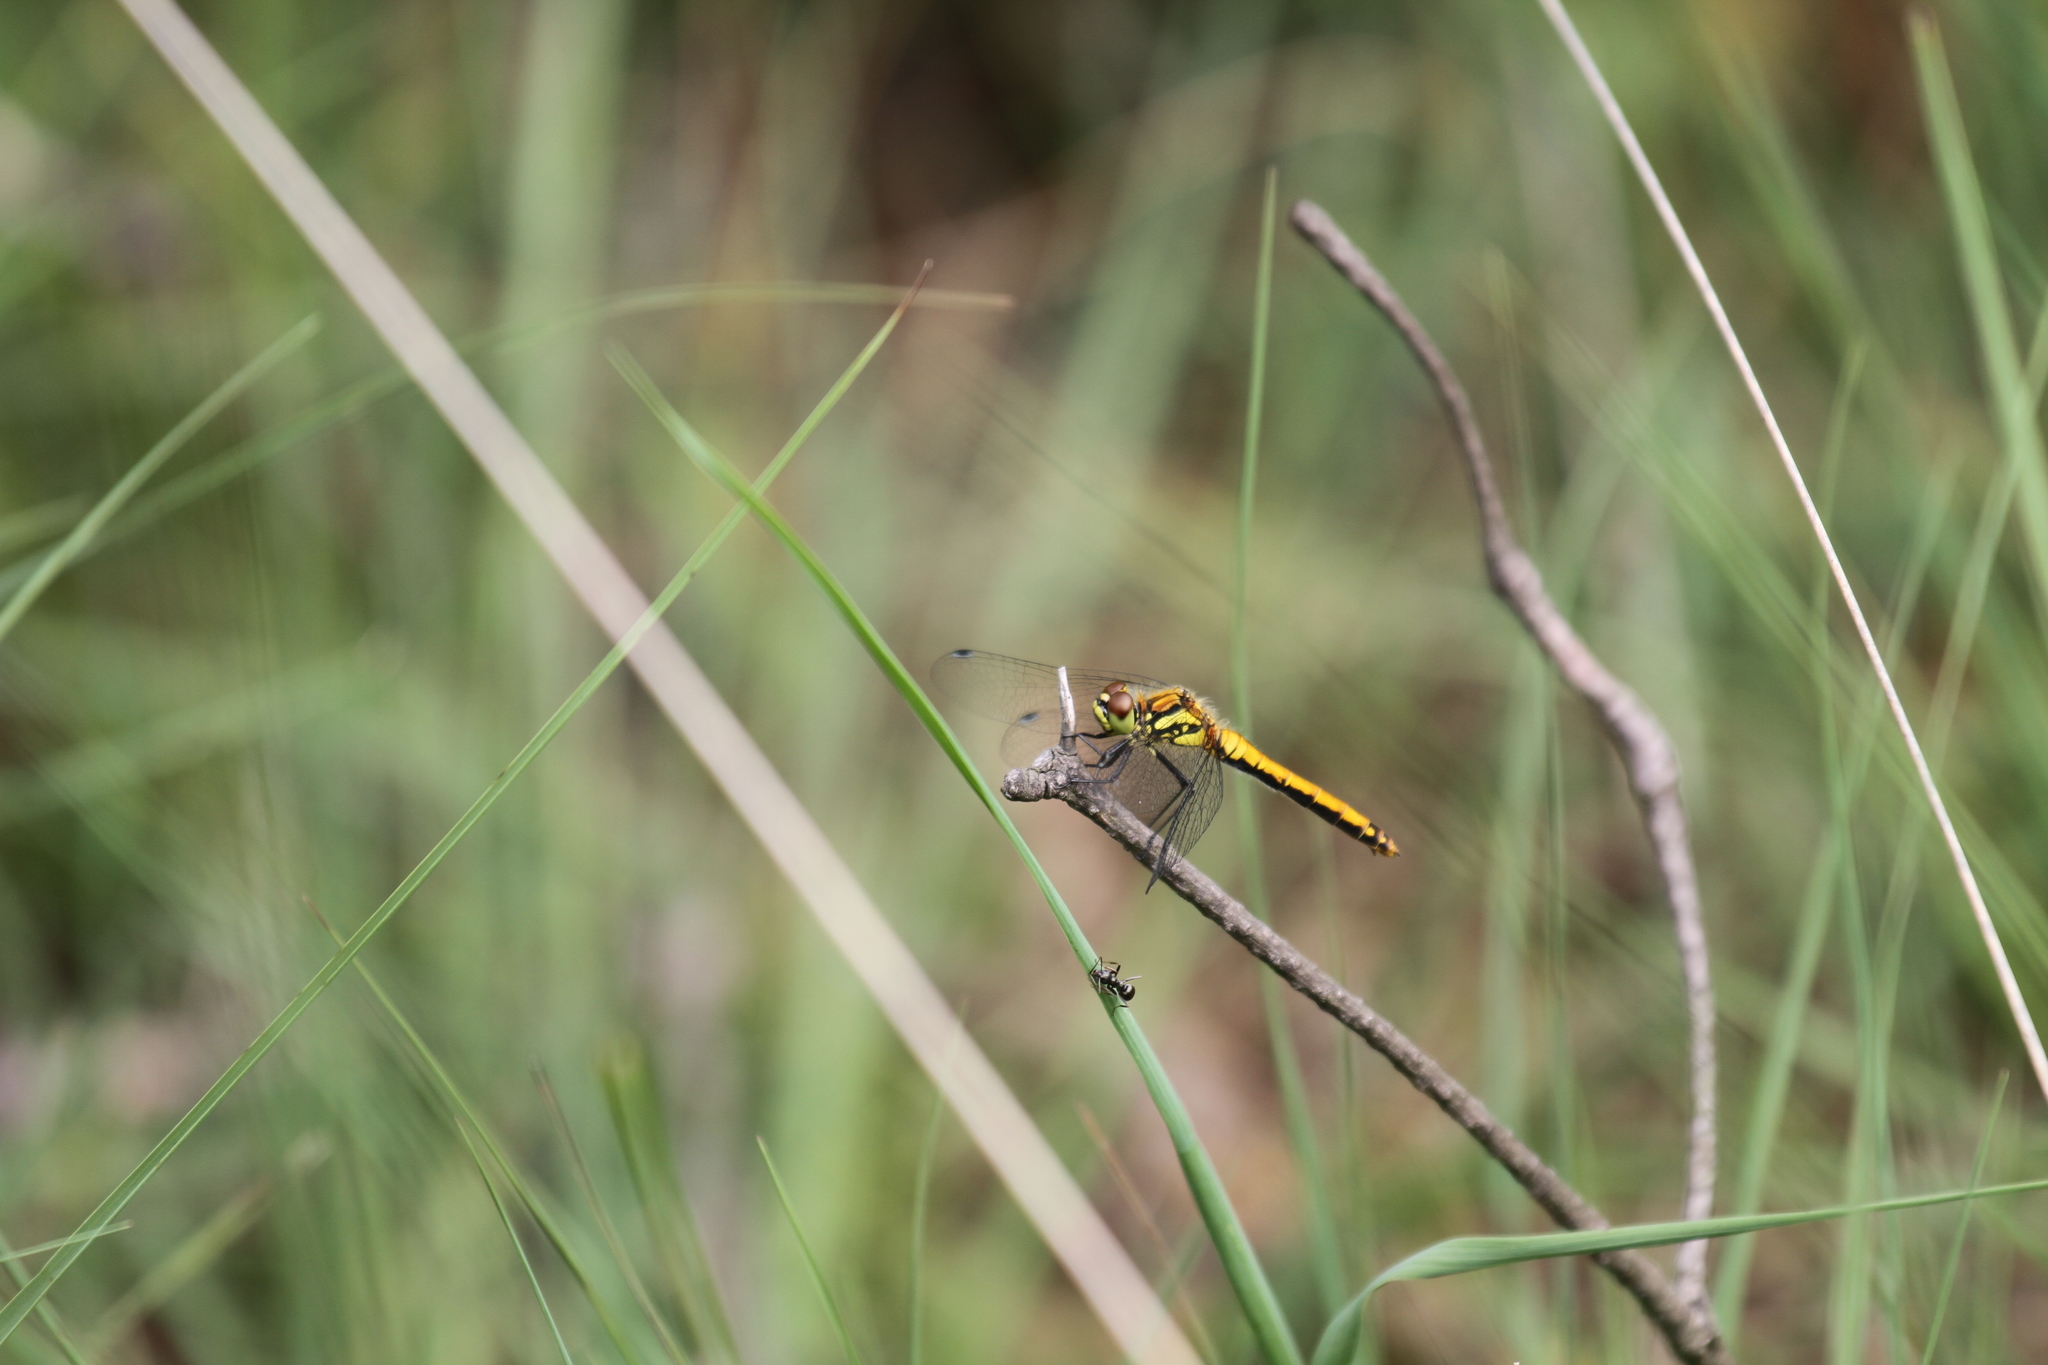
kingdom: Animalia
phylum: Arthropoda
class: Insecta
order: Odonata
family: Libellulidae
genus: Sympetrum
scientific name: Sympetrum danae
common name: Black darter
